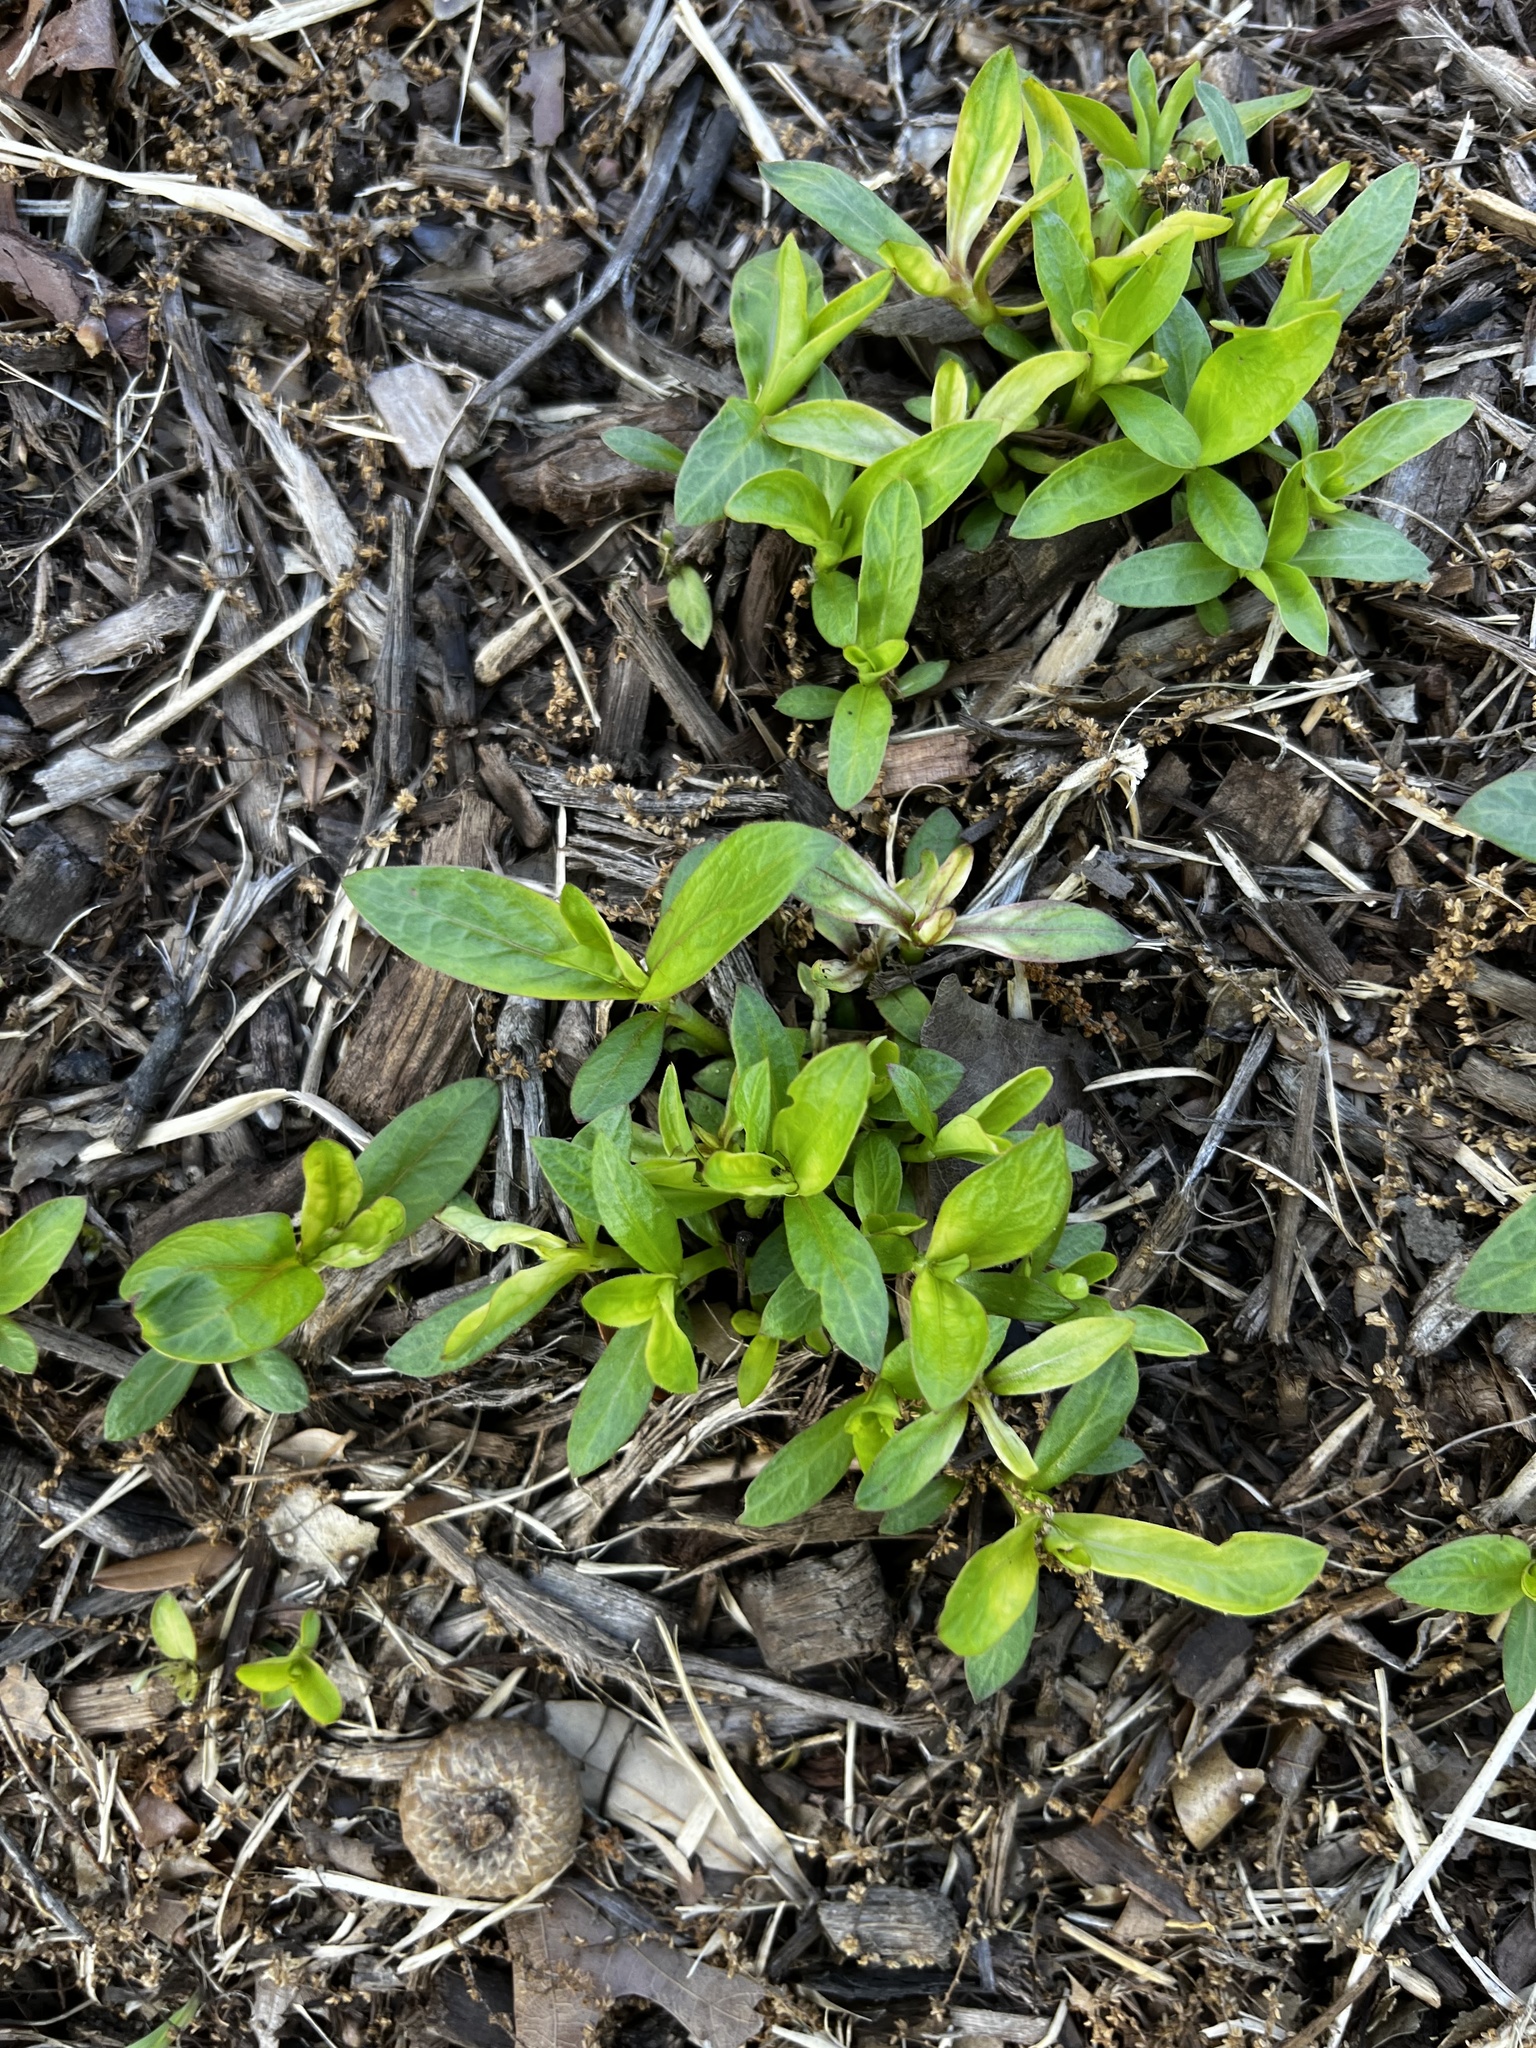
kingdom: Plantae
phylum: Tracheophyta
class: Magnoliopsida
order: Gentianales
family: Rubiaceae
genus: Diodia
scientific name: Diodia virginiana
